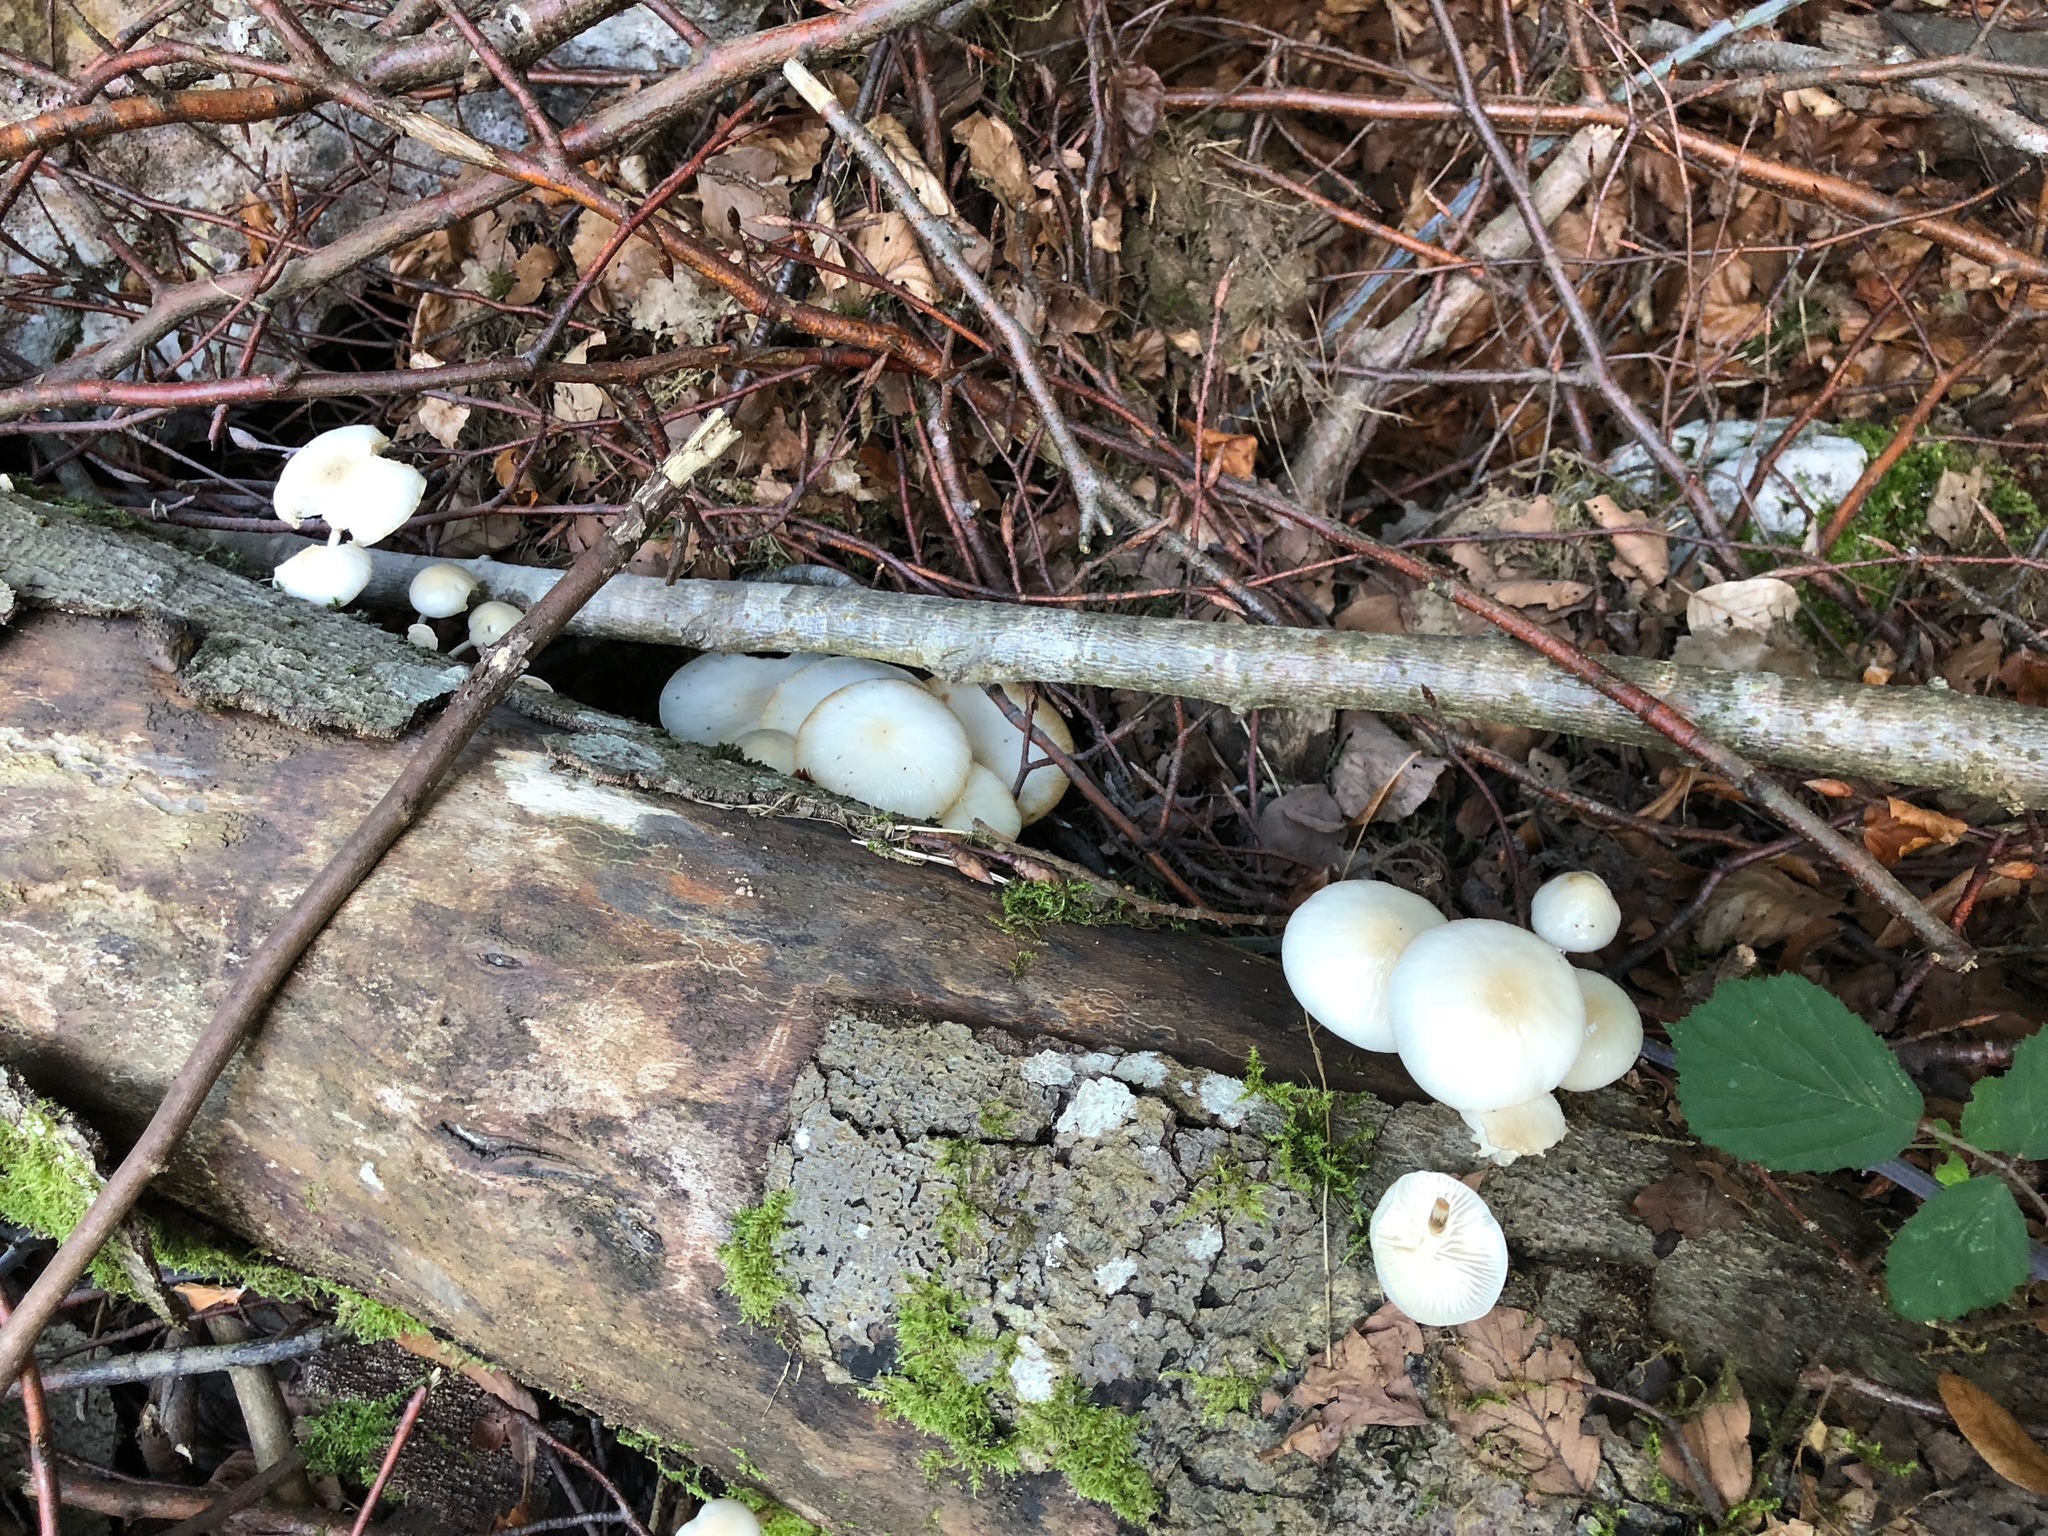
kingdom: Fungi
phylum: Basidiomycota
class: Agaricomycetes
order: Agaricales
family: Physalacriaceae
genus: Mucidula
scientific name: Mucidula mucida
